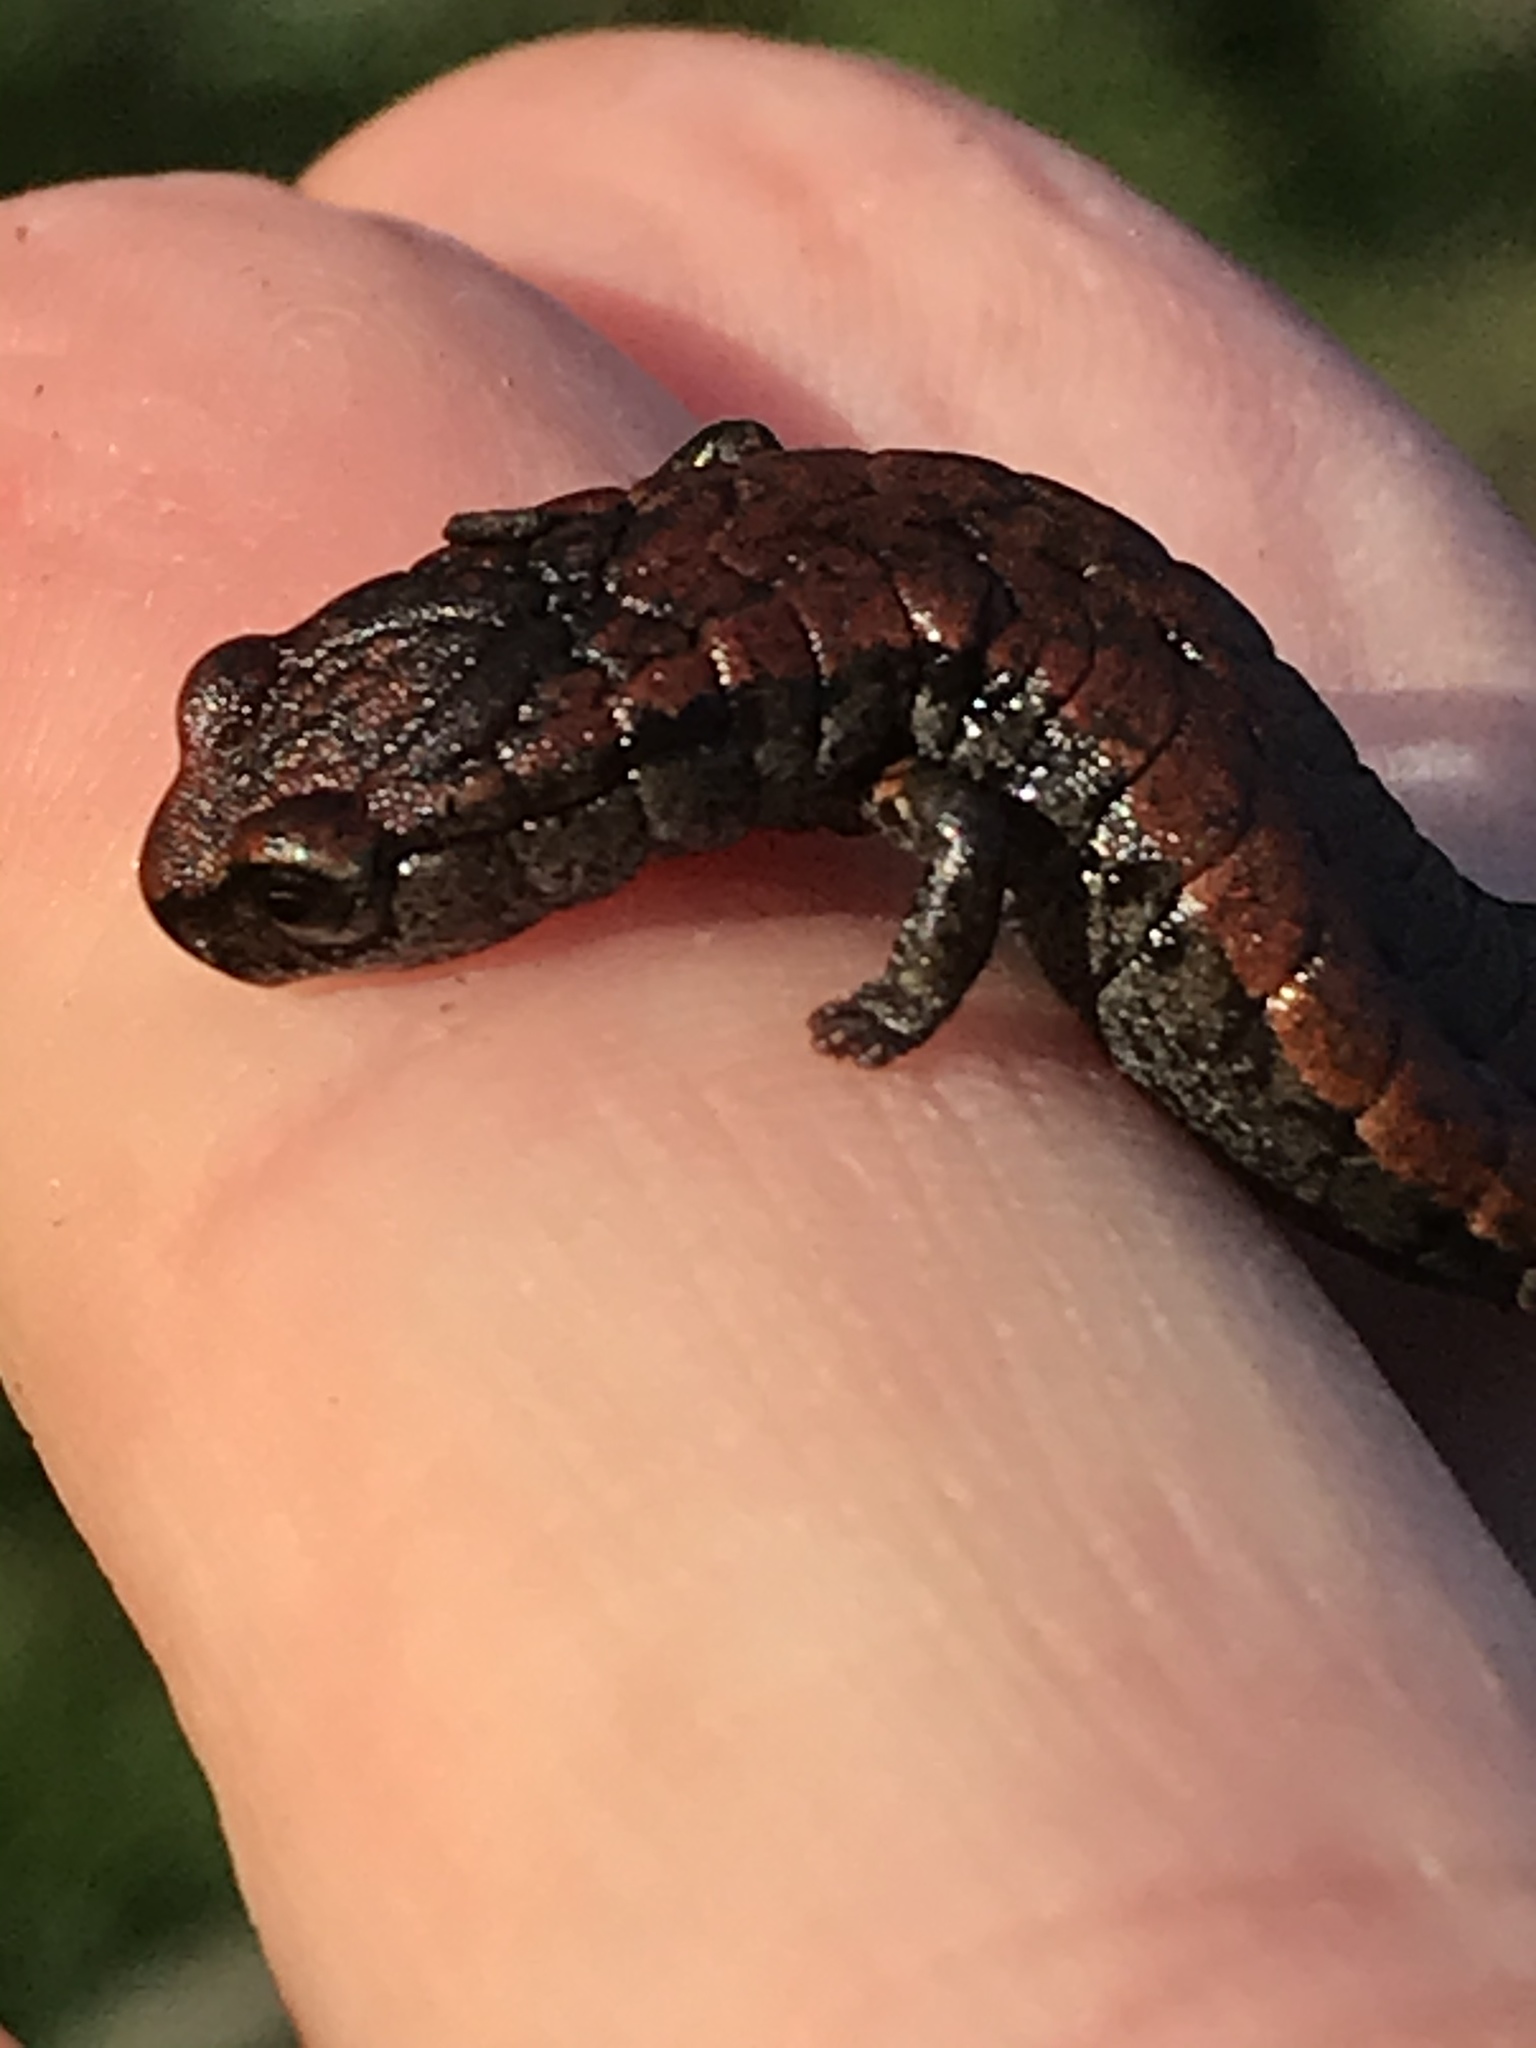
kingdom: Animalia
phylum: Chordata
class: Amphibia
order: Caudata
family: Plethodontidae
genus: Batrachoseps
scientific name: Batrachoseps attenuatus
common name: California slender salamander
